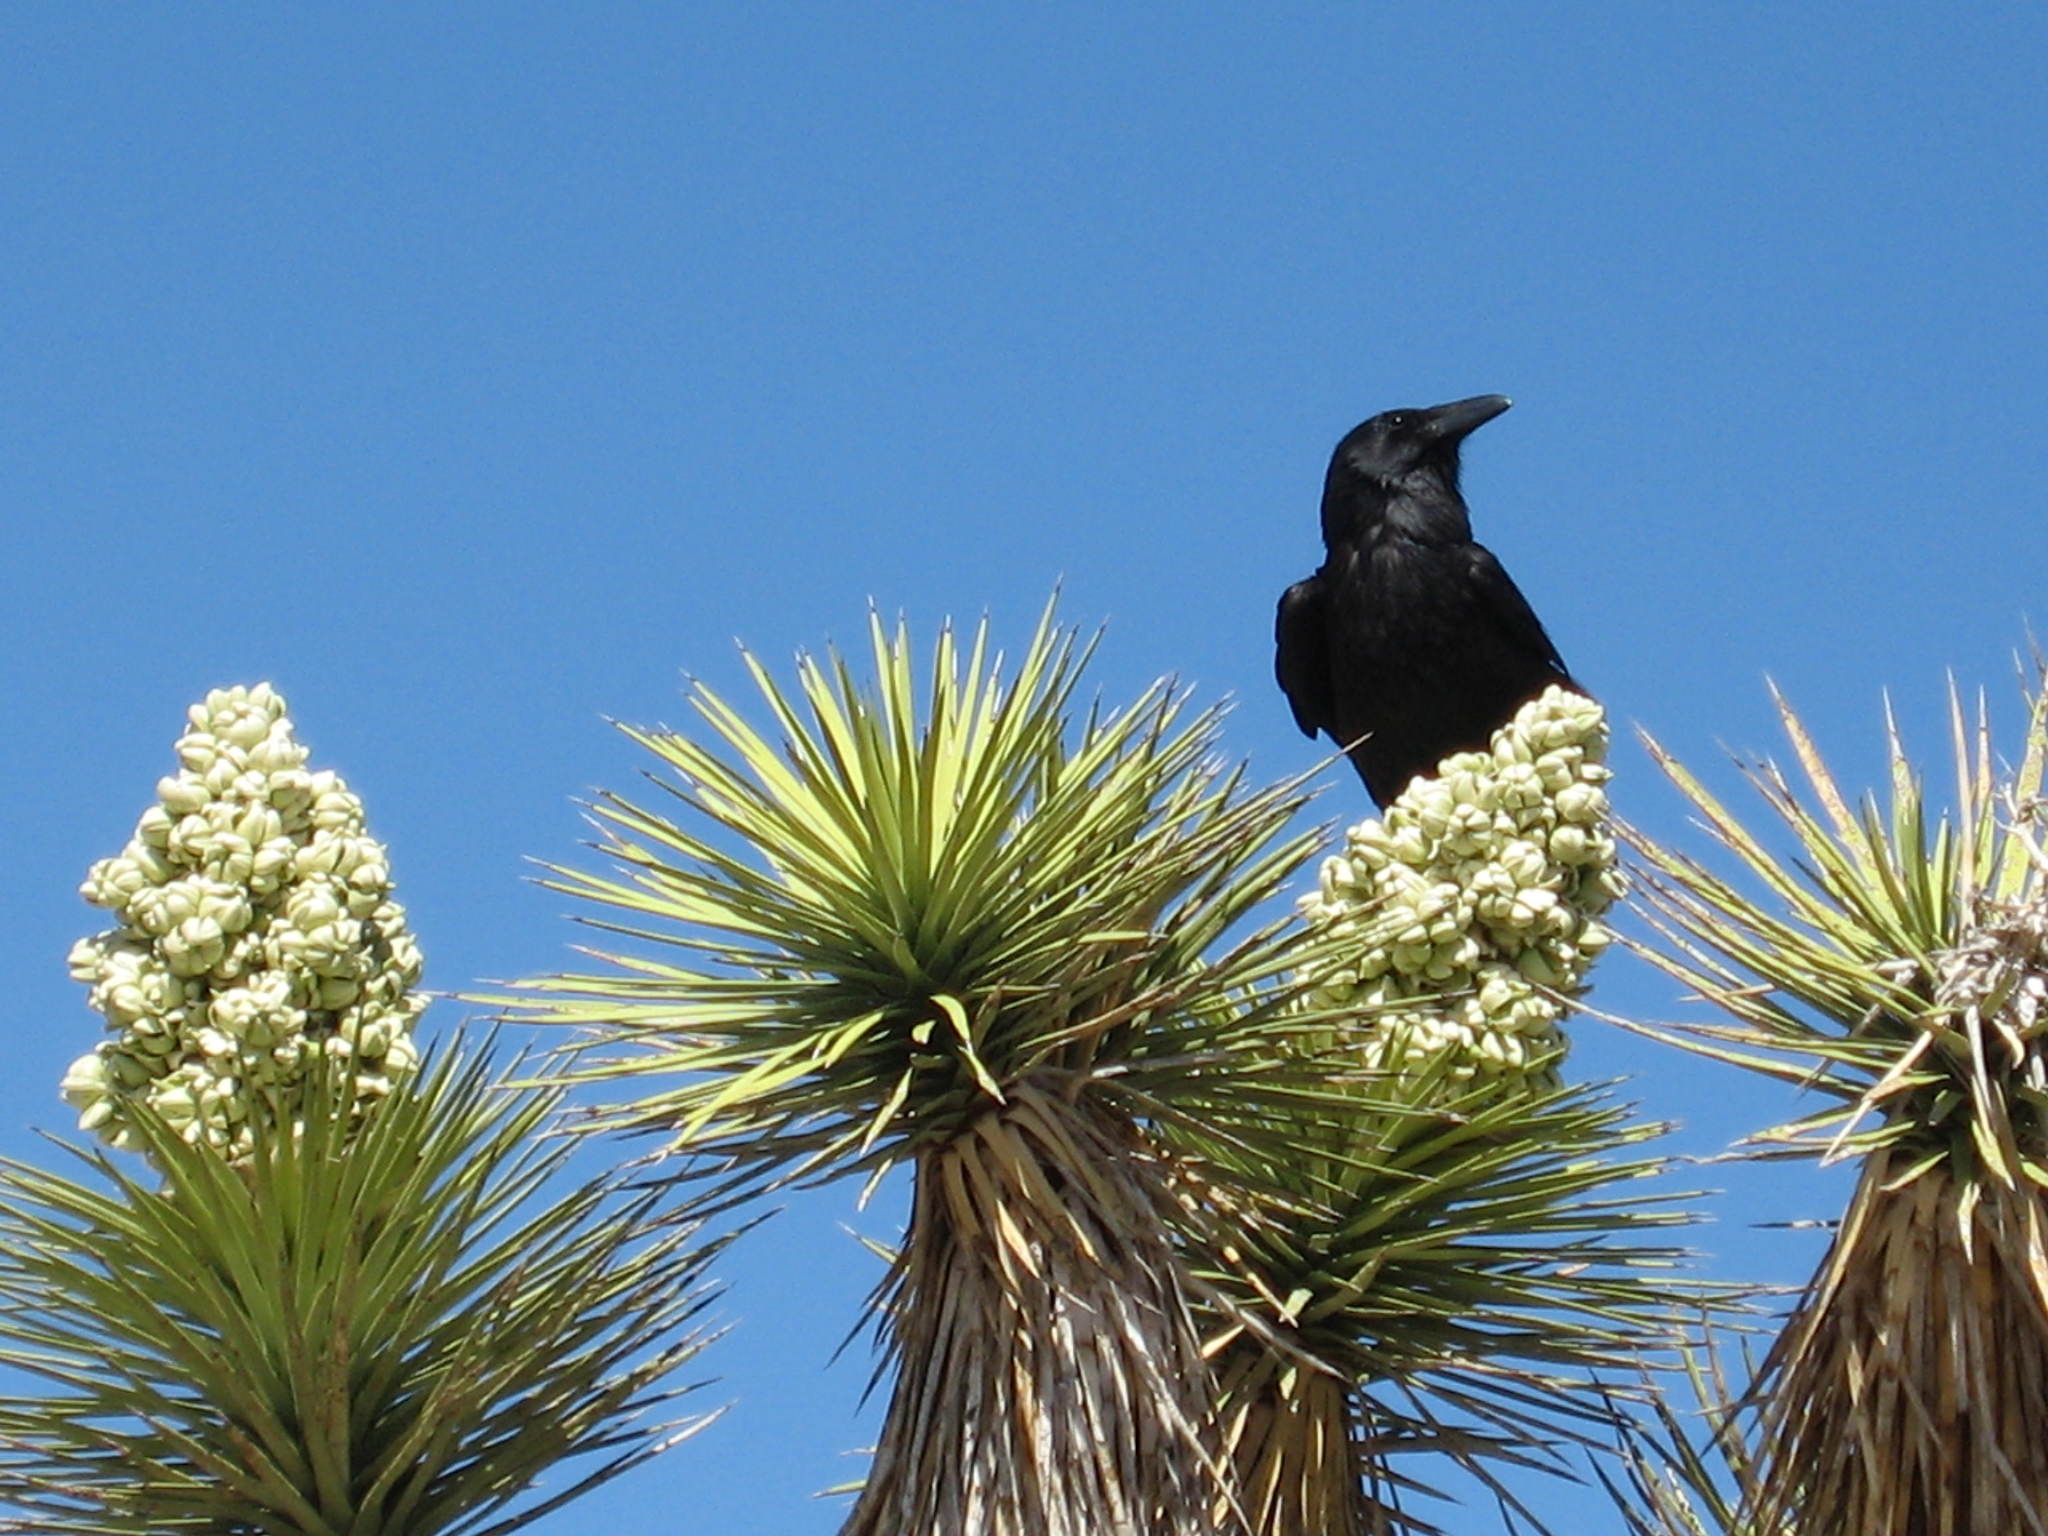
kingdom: Animalia
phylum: Chordata
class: Aves
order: Passeriformes
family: Corvidae
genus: Corvus
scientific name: Corvus corax
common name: Common raven
